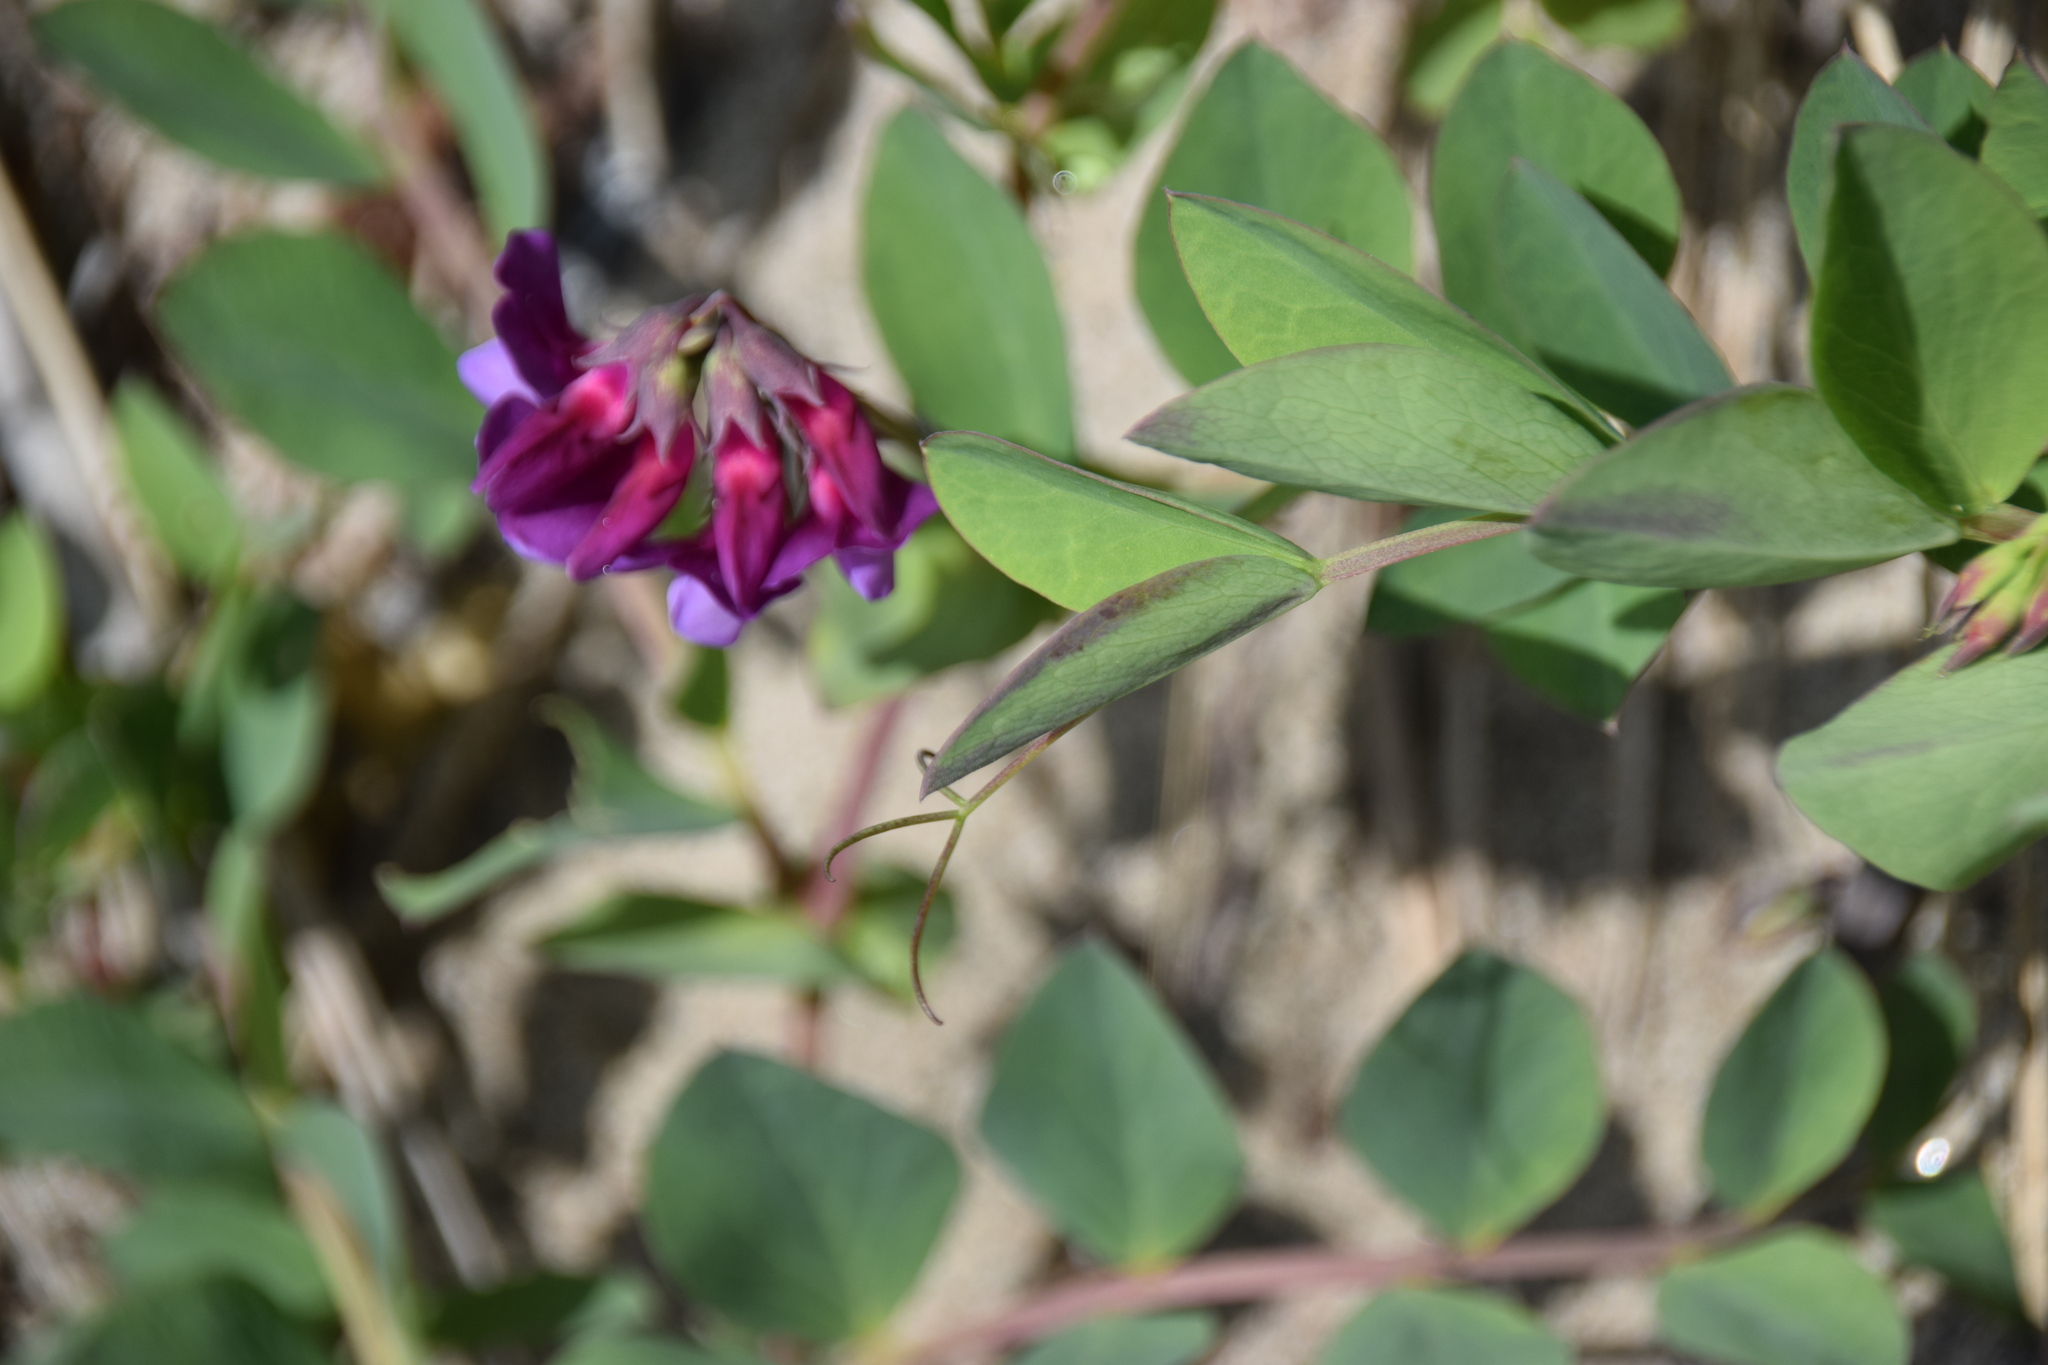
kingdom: Plantae
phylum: Tracheophyta
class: Magnoliopsida
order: Fabales
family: Fabaceae
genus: Lathyrus
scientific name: Lathyrus japonicus
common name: Sea pea
